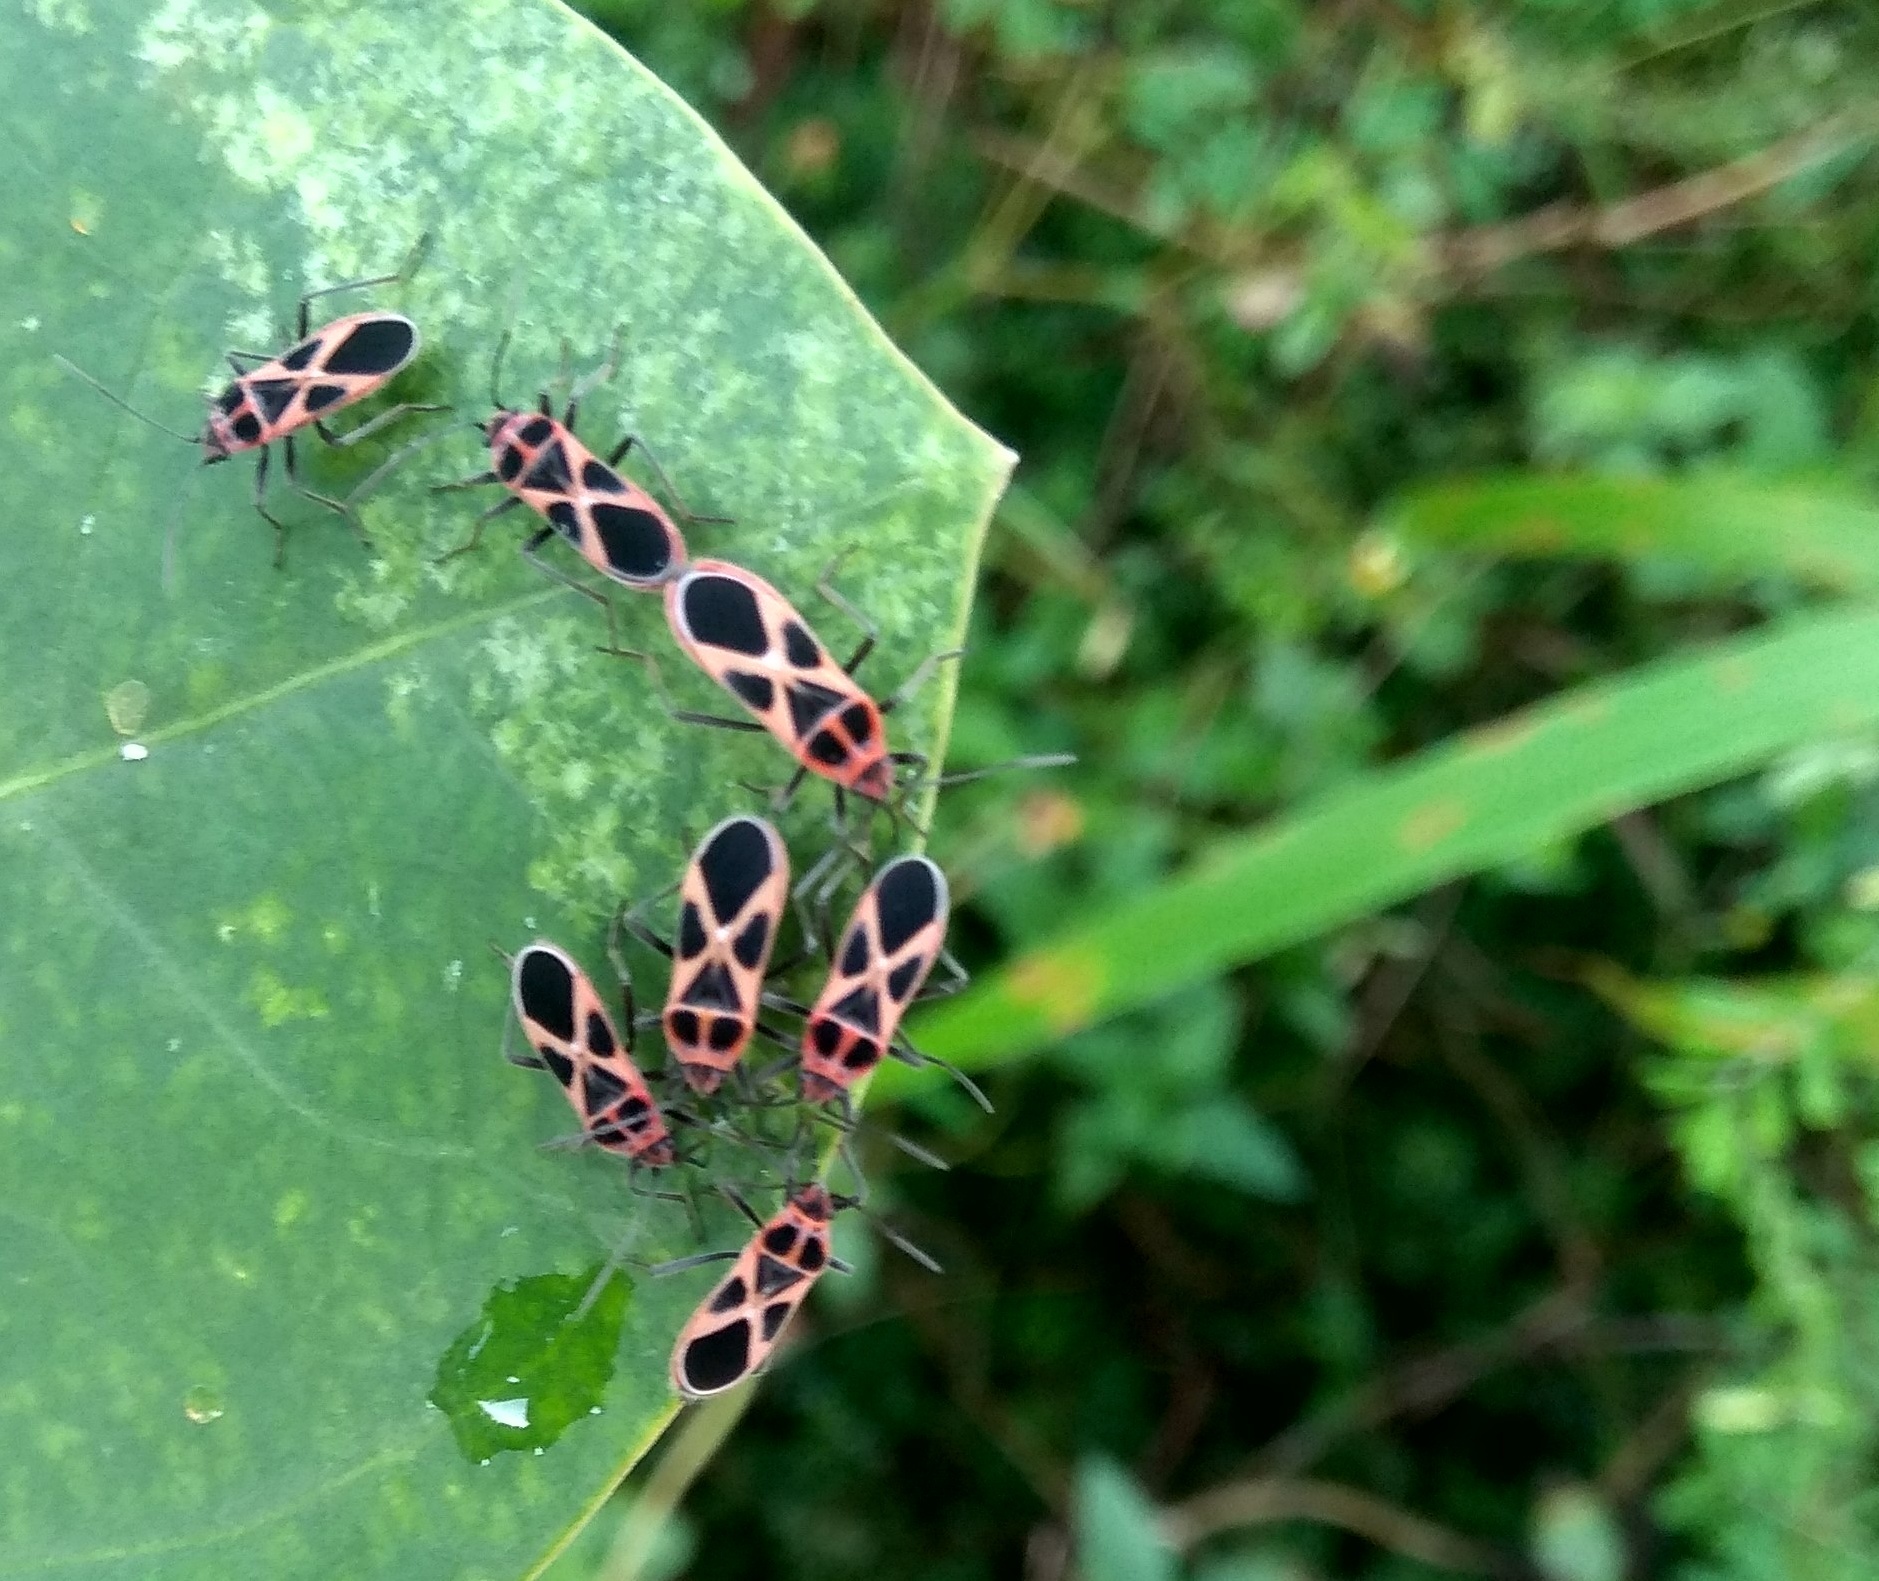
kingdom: Animalia
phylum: Arthropoda
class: Insecta
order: Hemiptera
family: Lygaeidae
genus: Tropidothorax
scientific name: Tropidothorax fimbriatus
